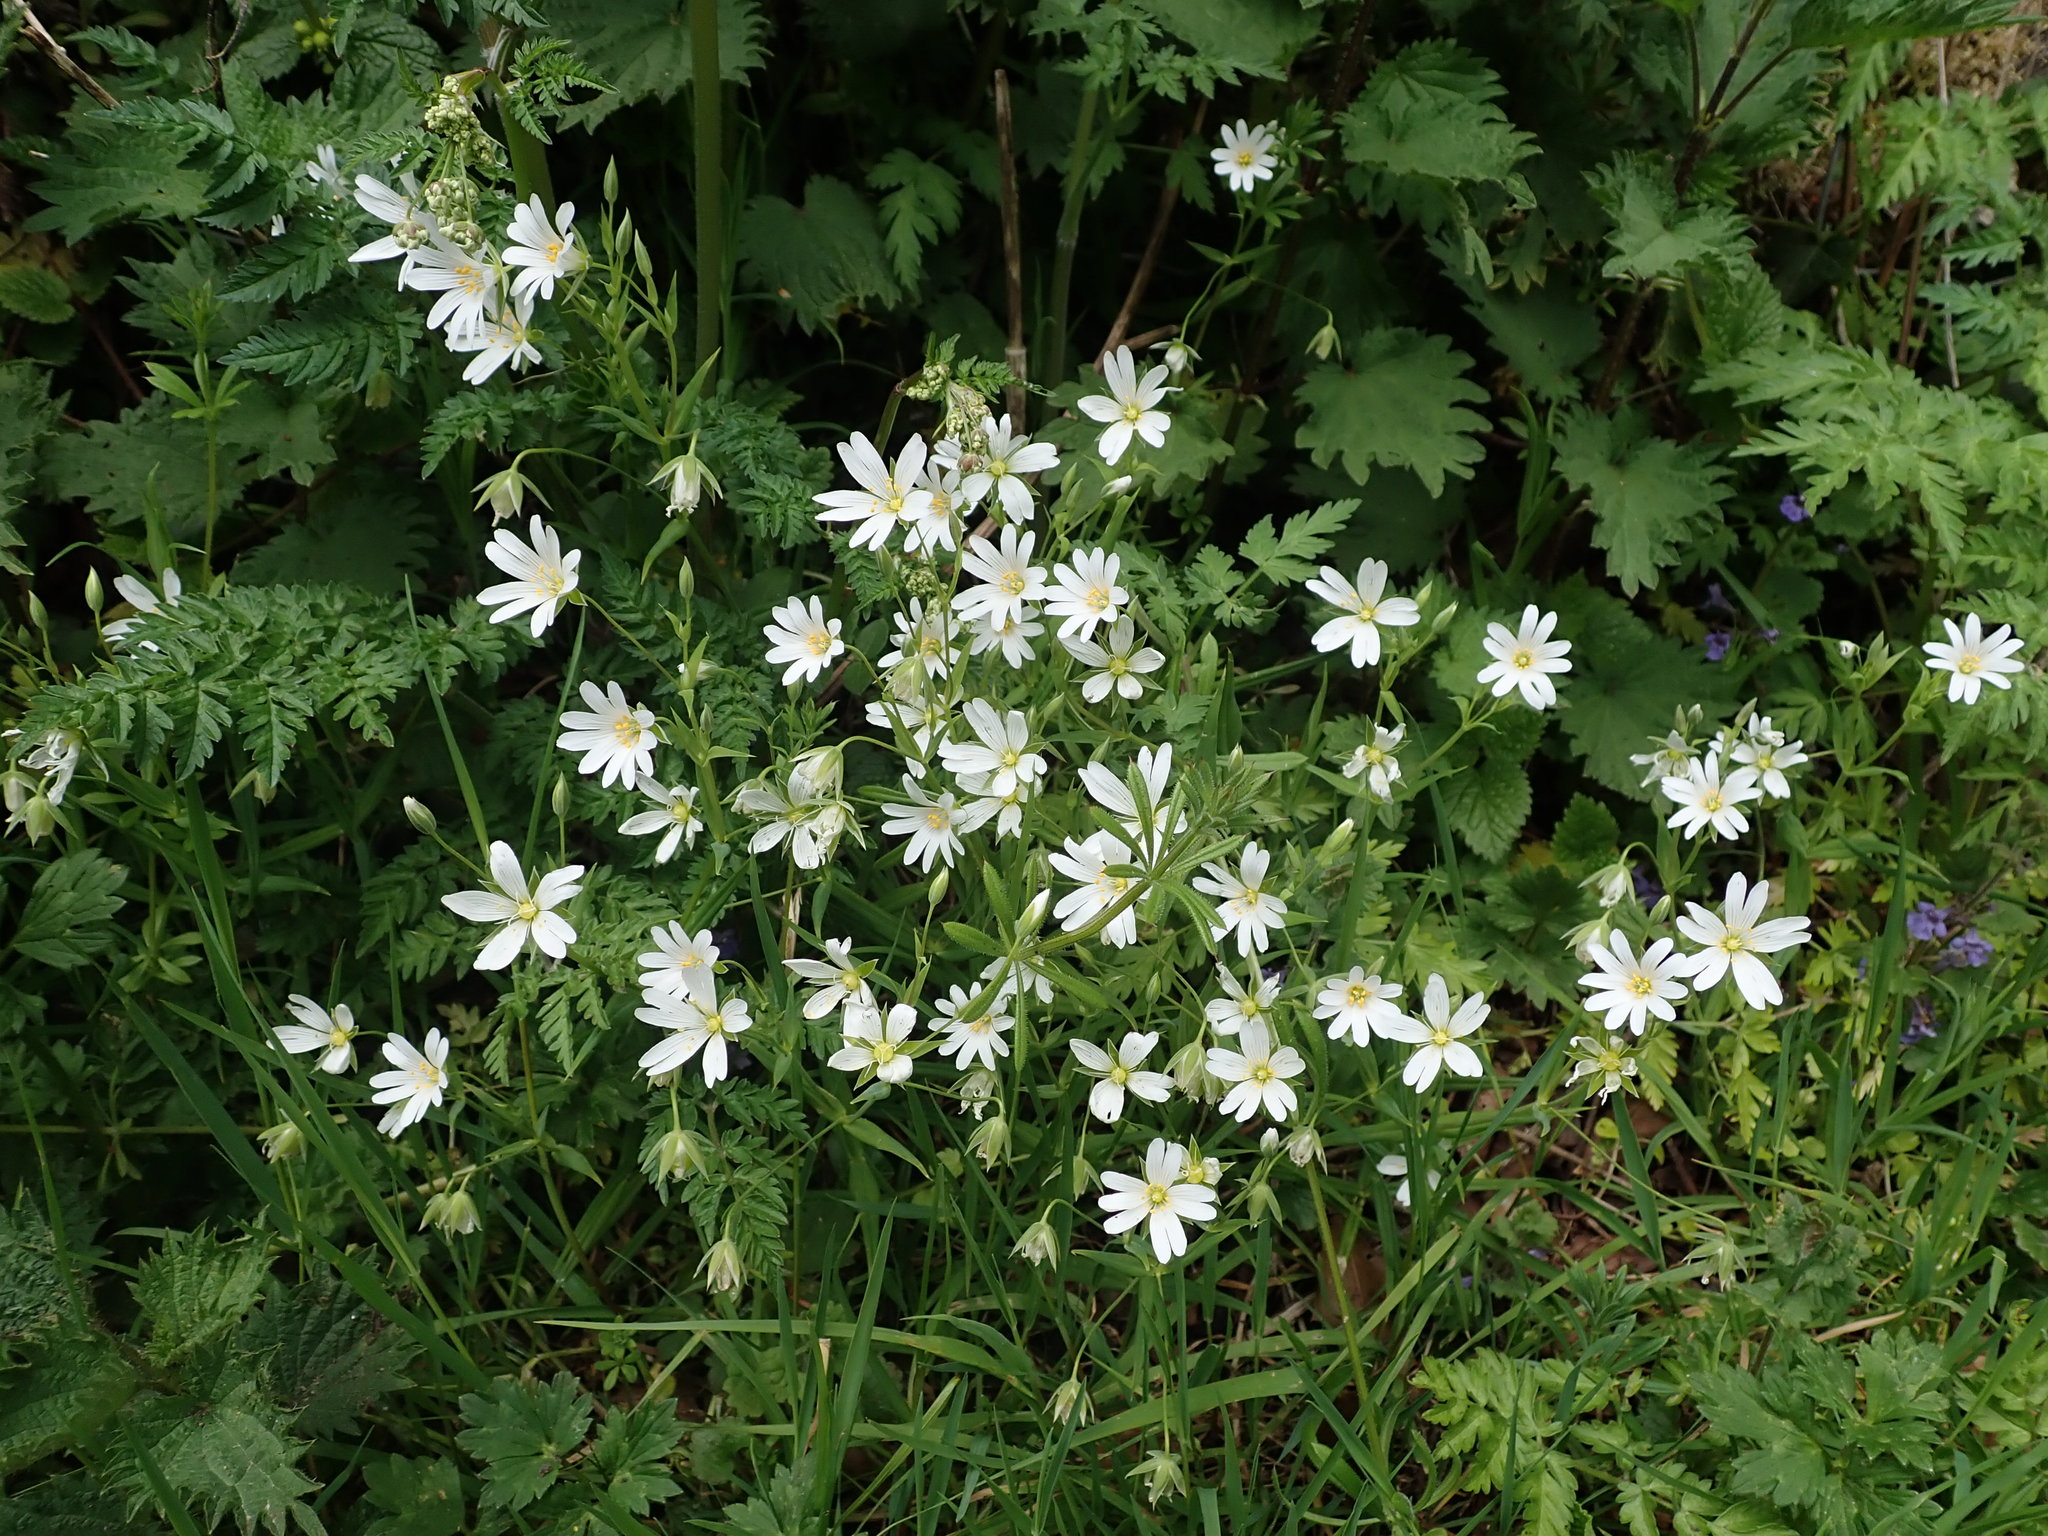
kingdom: Plantae
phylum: Tracheophyta
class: Magnoliopsida
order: Caryophyllales
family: Caryophyllaceae
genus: Rabelera
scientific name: Rabelera holostea
